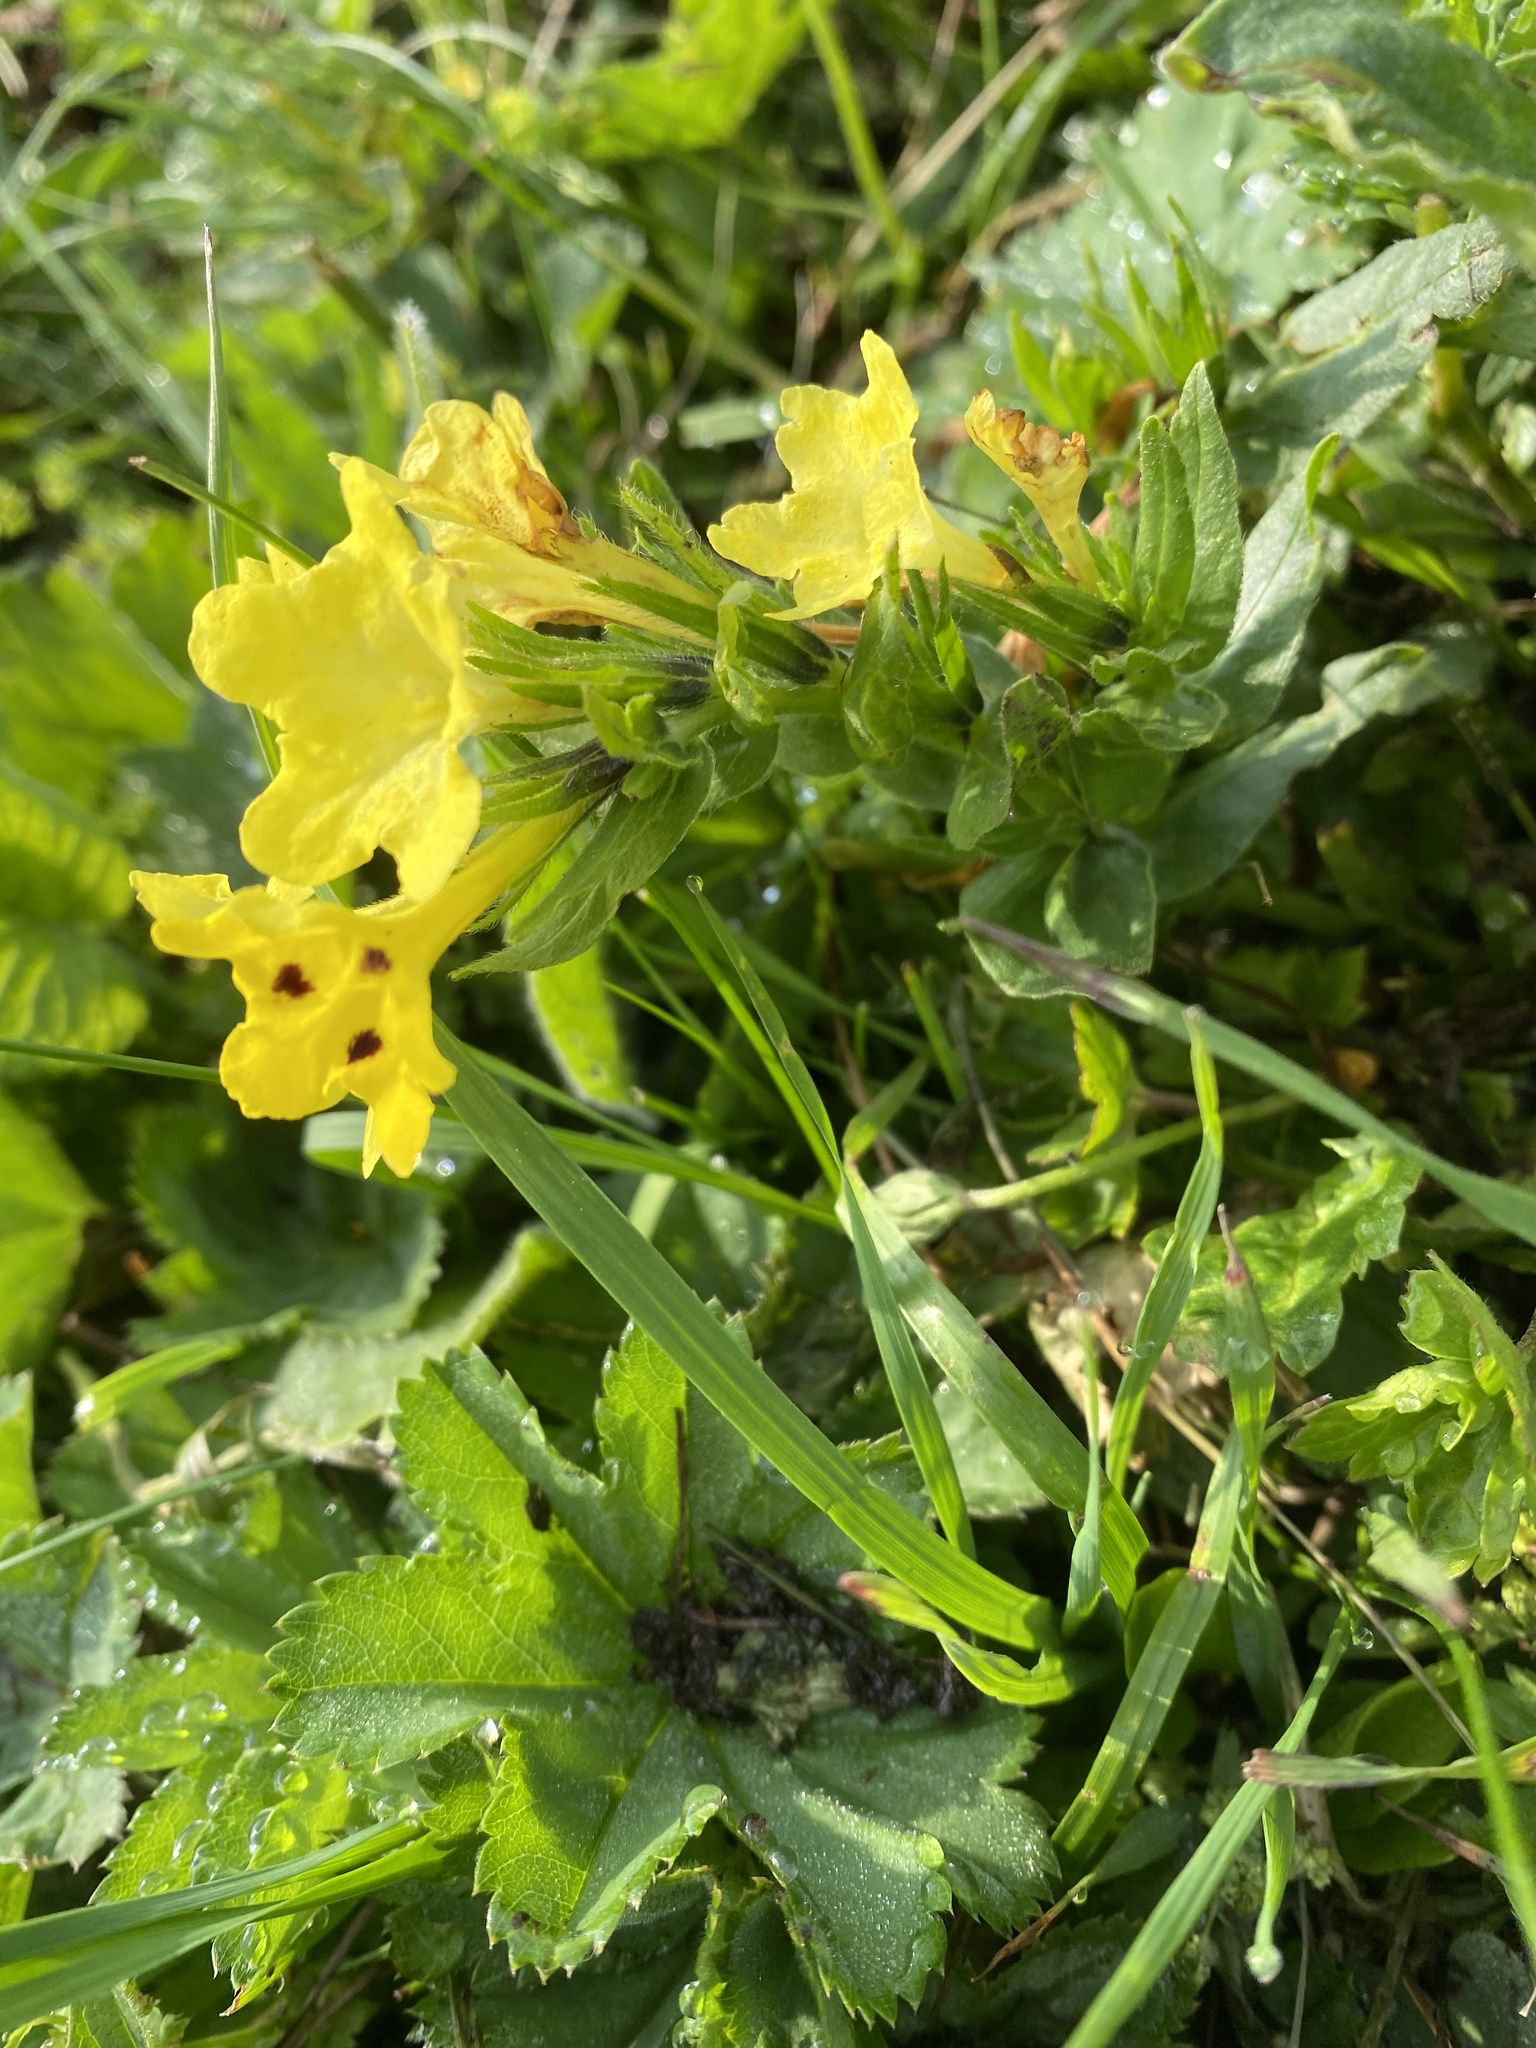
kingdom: Plantae
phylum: Tracheophyta
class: Magnoliopsida
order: Boraginales
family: Boraginaceae
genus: Huynhia
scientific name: Huynhia pulchra
